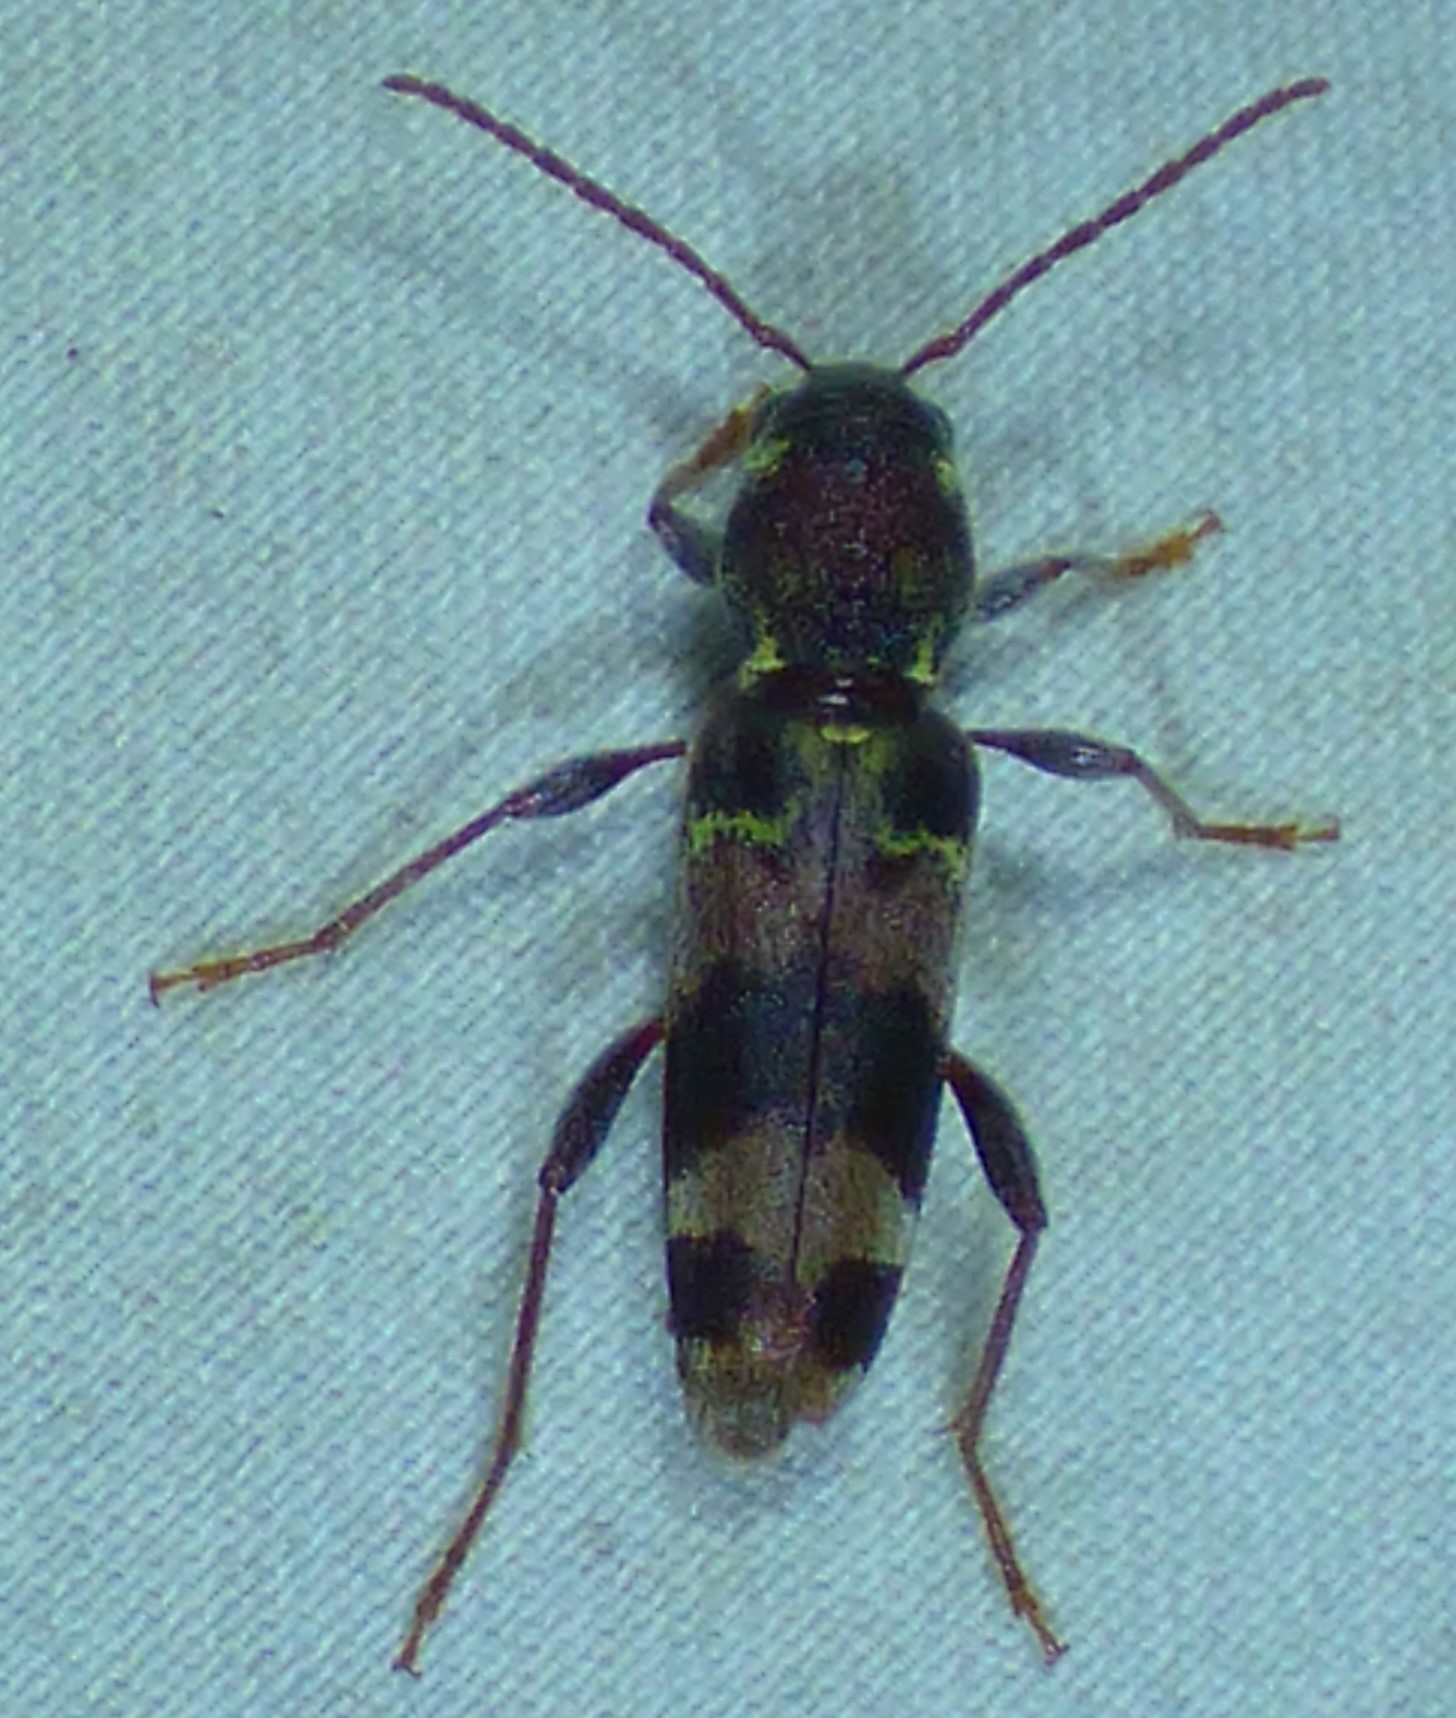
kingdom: Animalia
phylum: Arthropoda
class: Insecta
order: Coleoptera
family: Cerambycidae
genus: Xylotrechus
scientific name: Xylotrechus colonus
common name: Long-horned beetle
